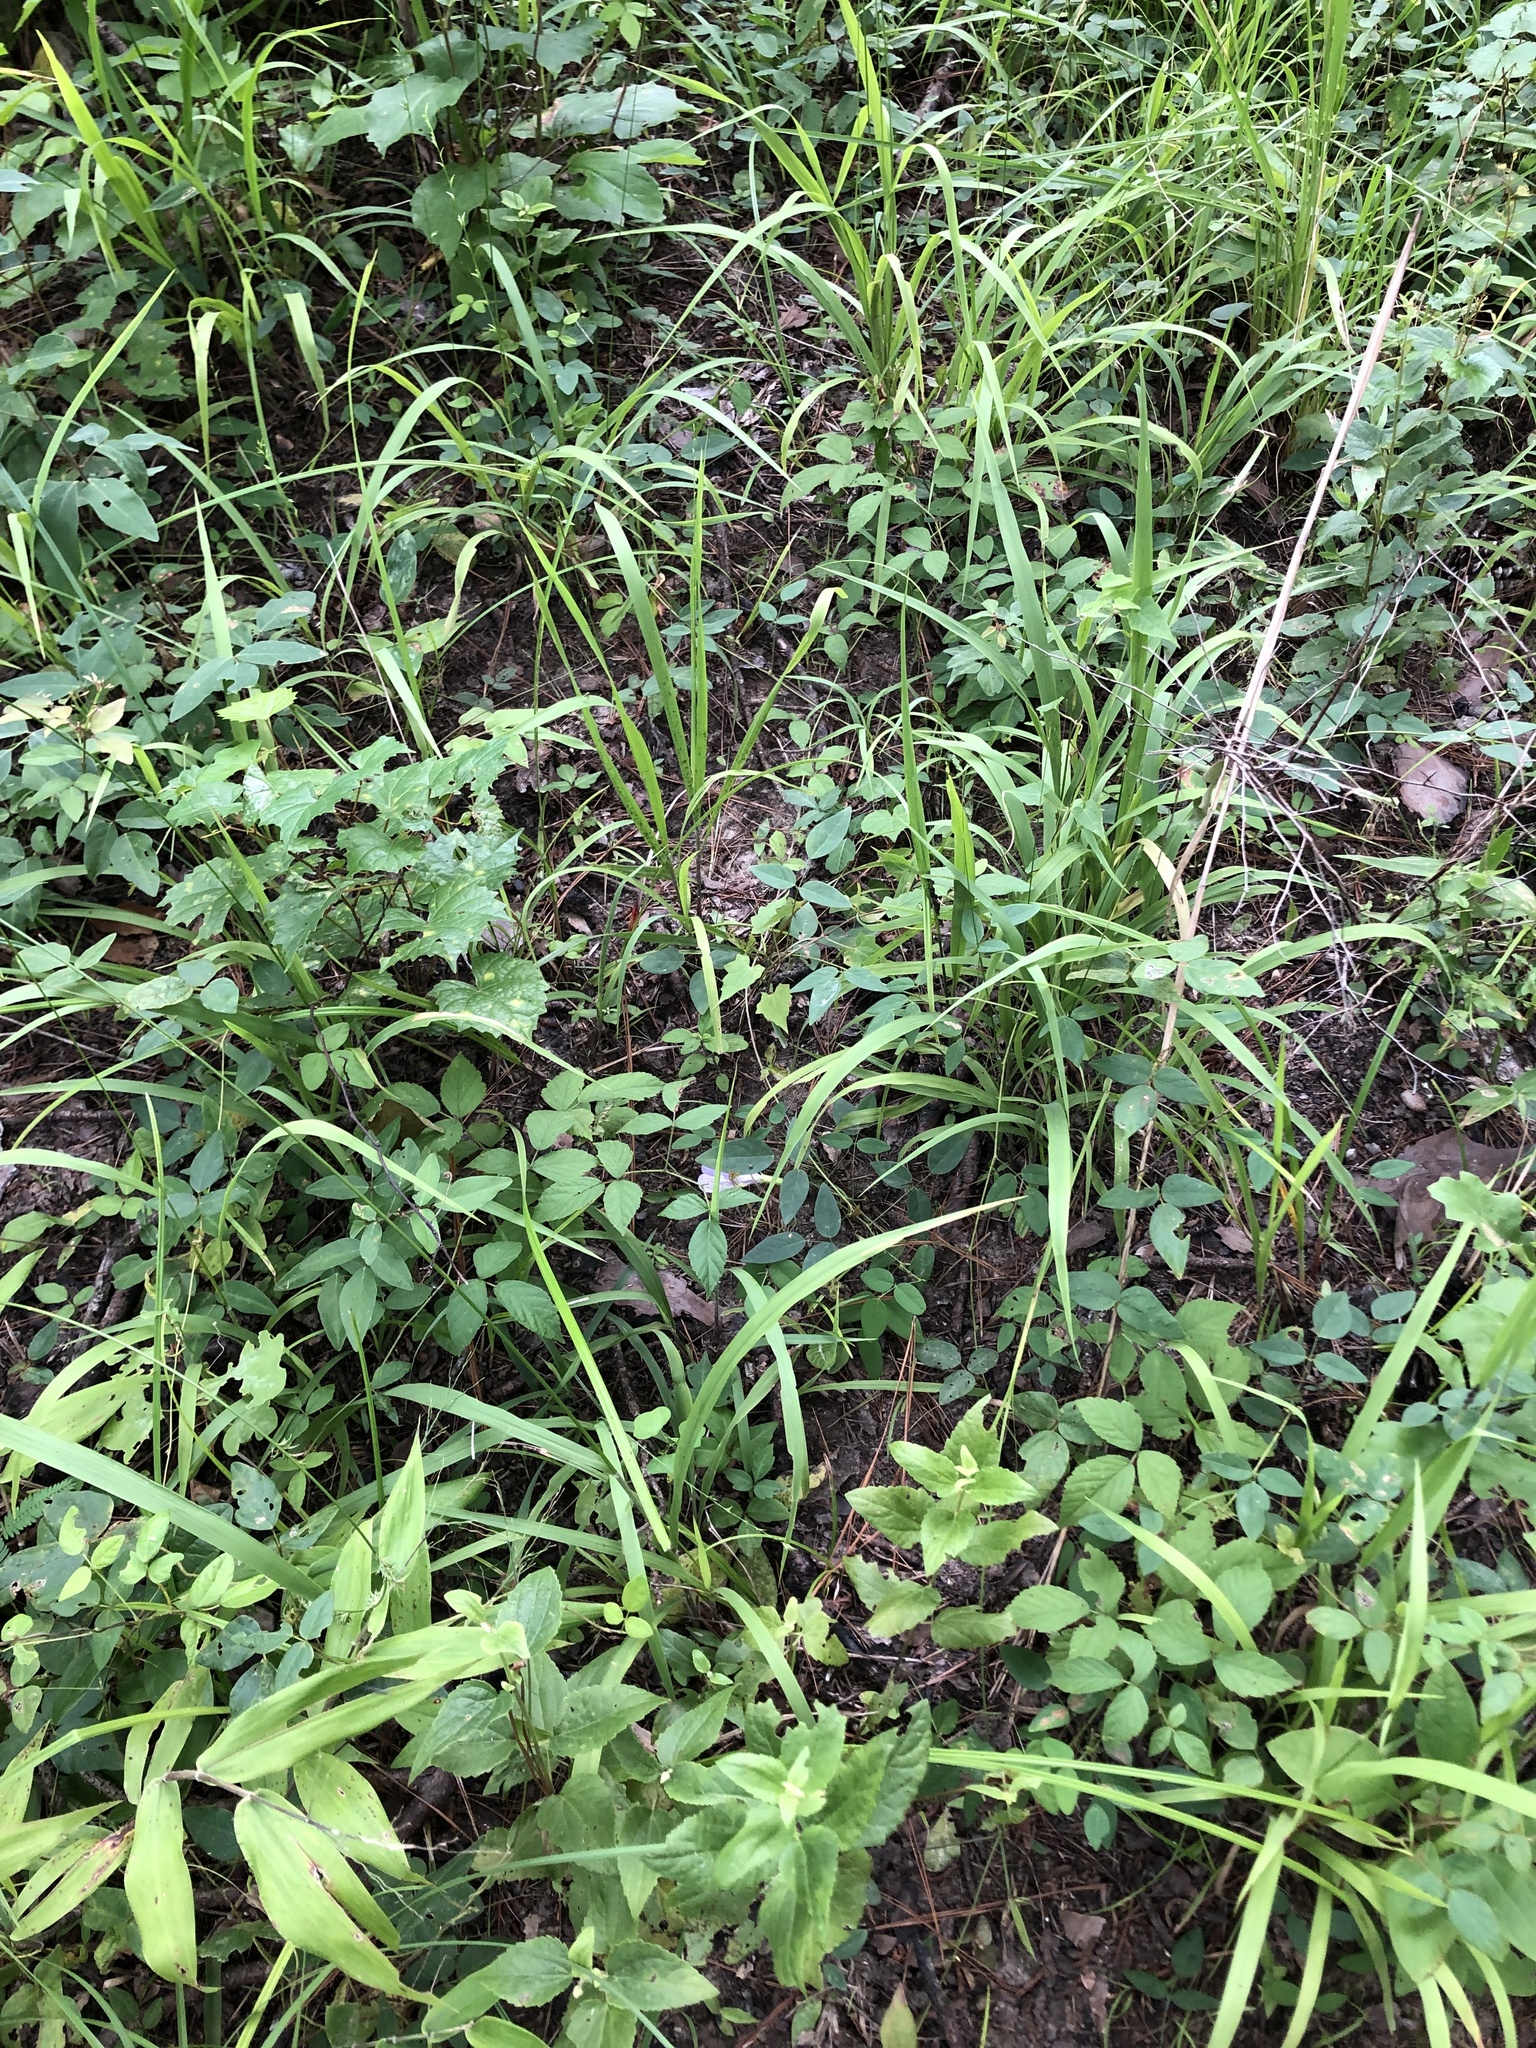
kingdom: Plantae
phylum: Tracheophyta
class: Magnoliopsida
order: Fabales
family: Fabaceae
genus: Clitoria
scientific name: Clitoria mariana
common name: Butterfly-pea
